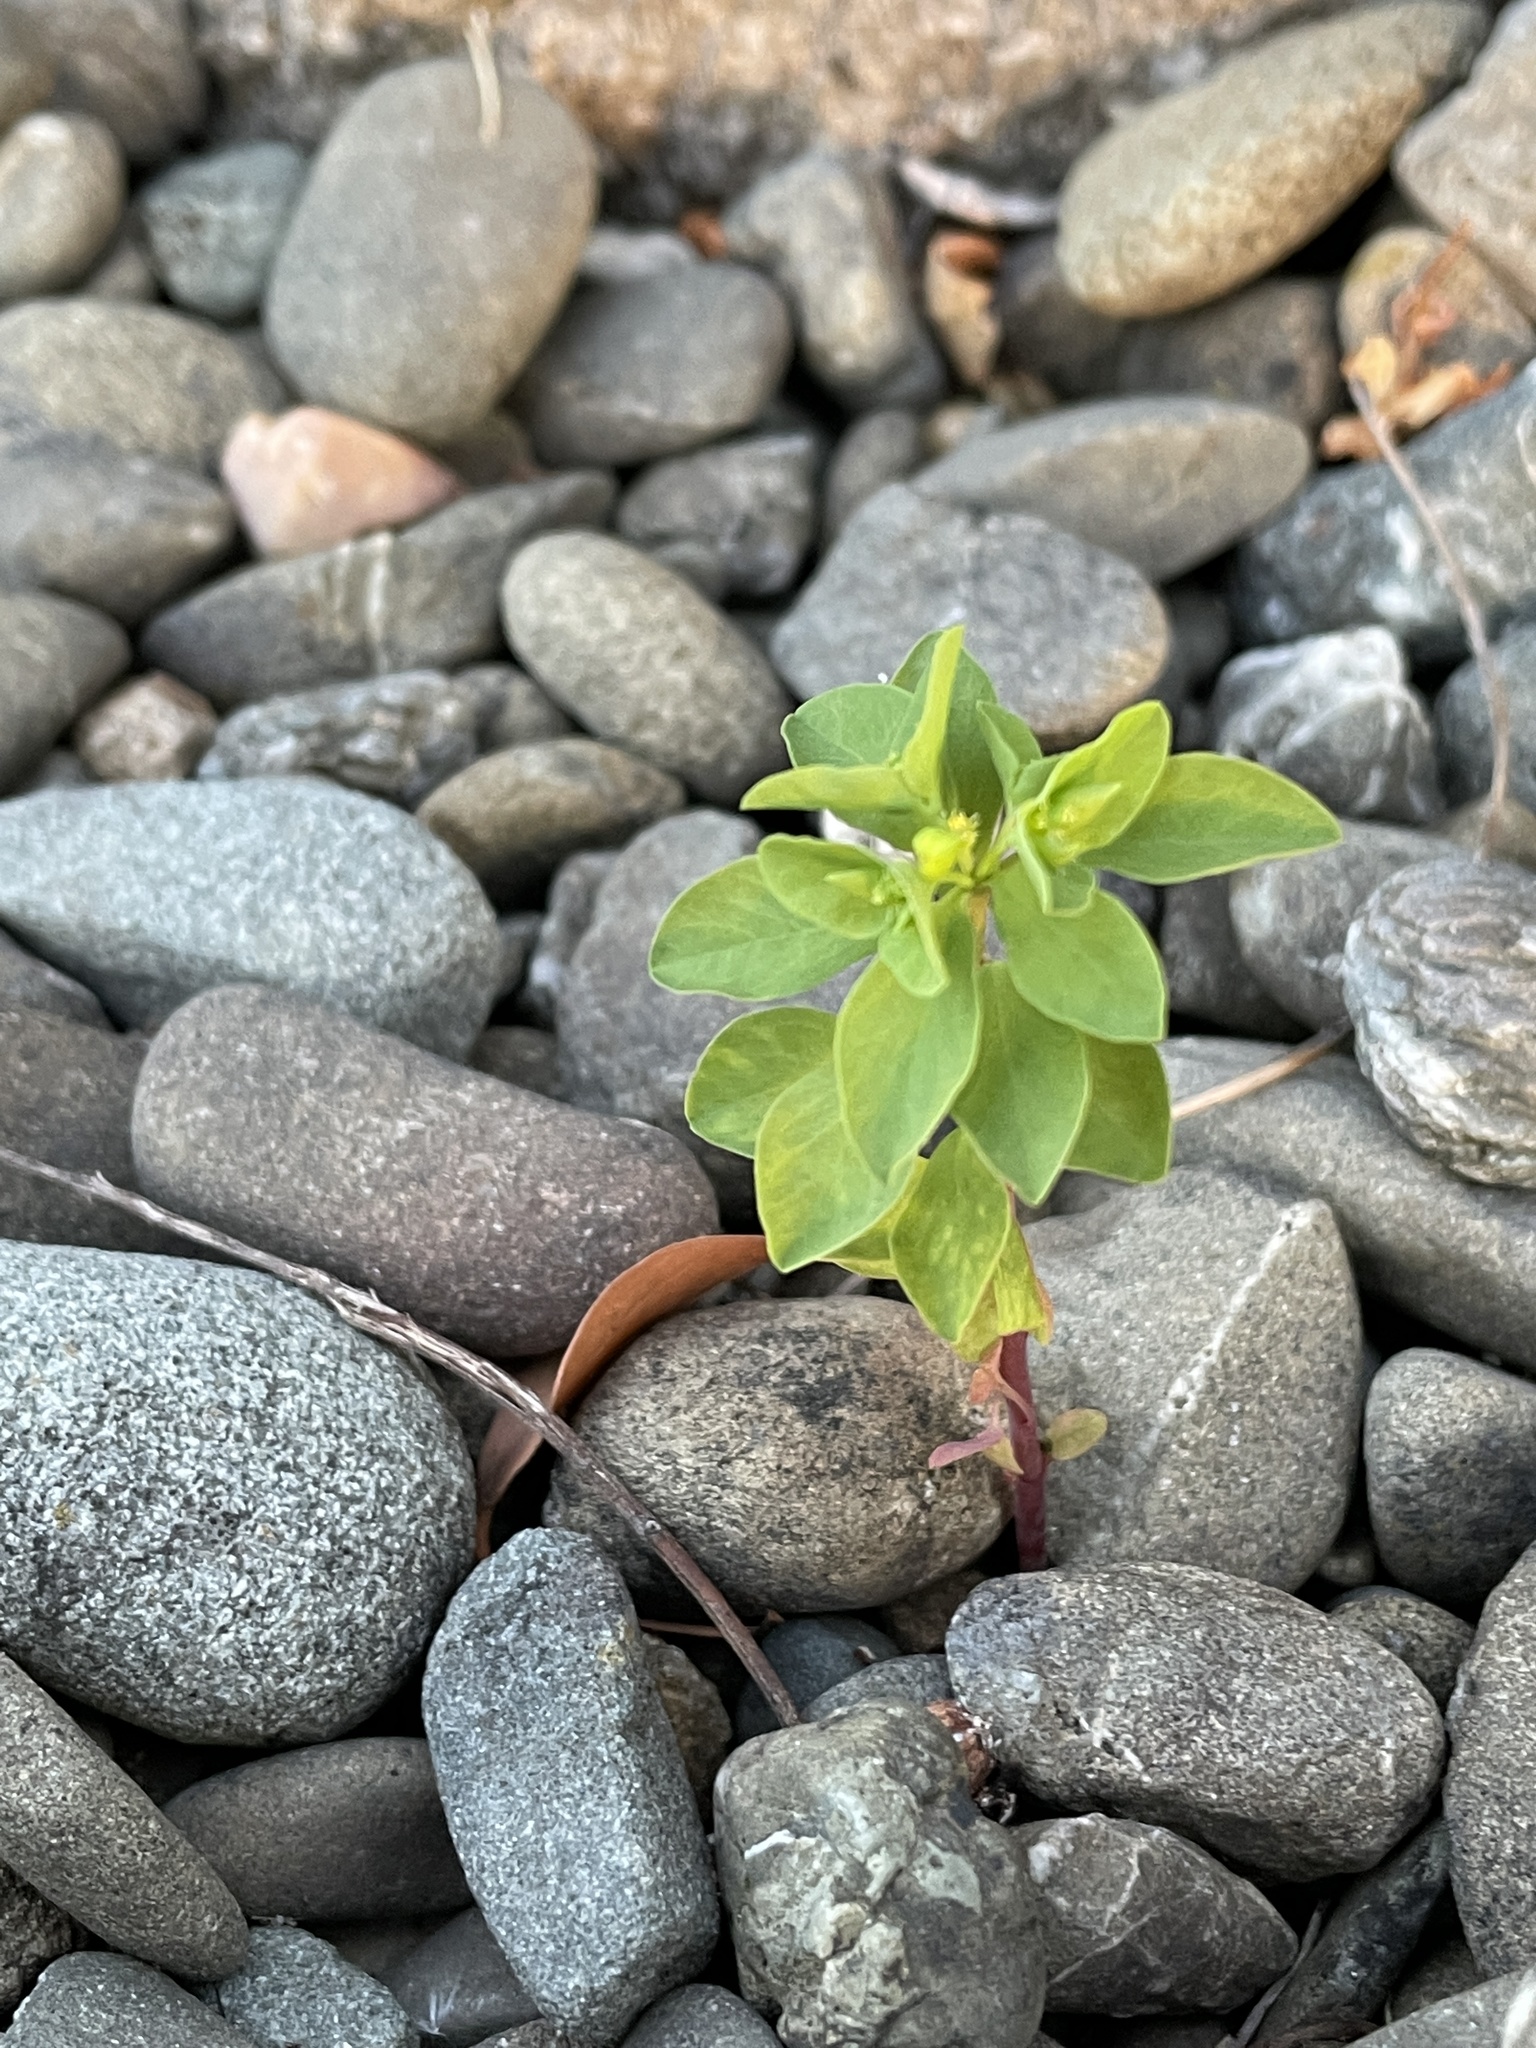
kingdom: Plantae
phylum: Tracheophyta
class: Magnoliopsida
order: Malpighiales
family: Euphorbiaceae
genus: Euphorbia
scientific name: Euphorbia peplus
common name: Petty spurge
